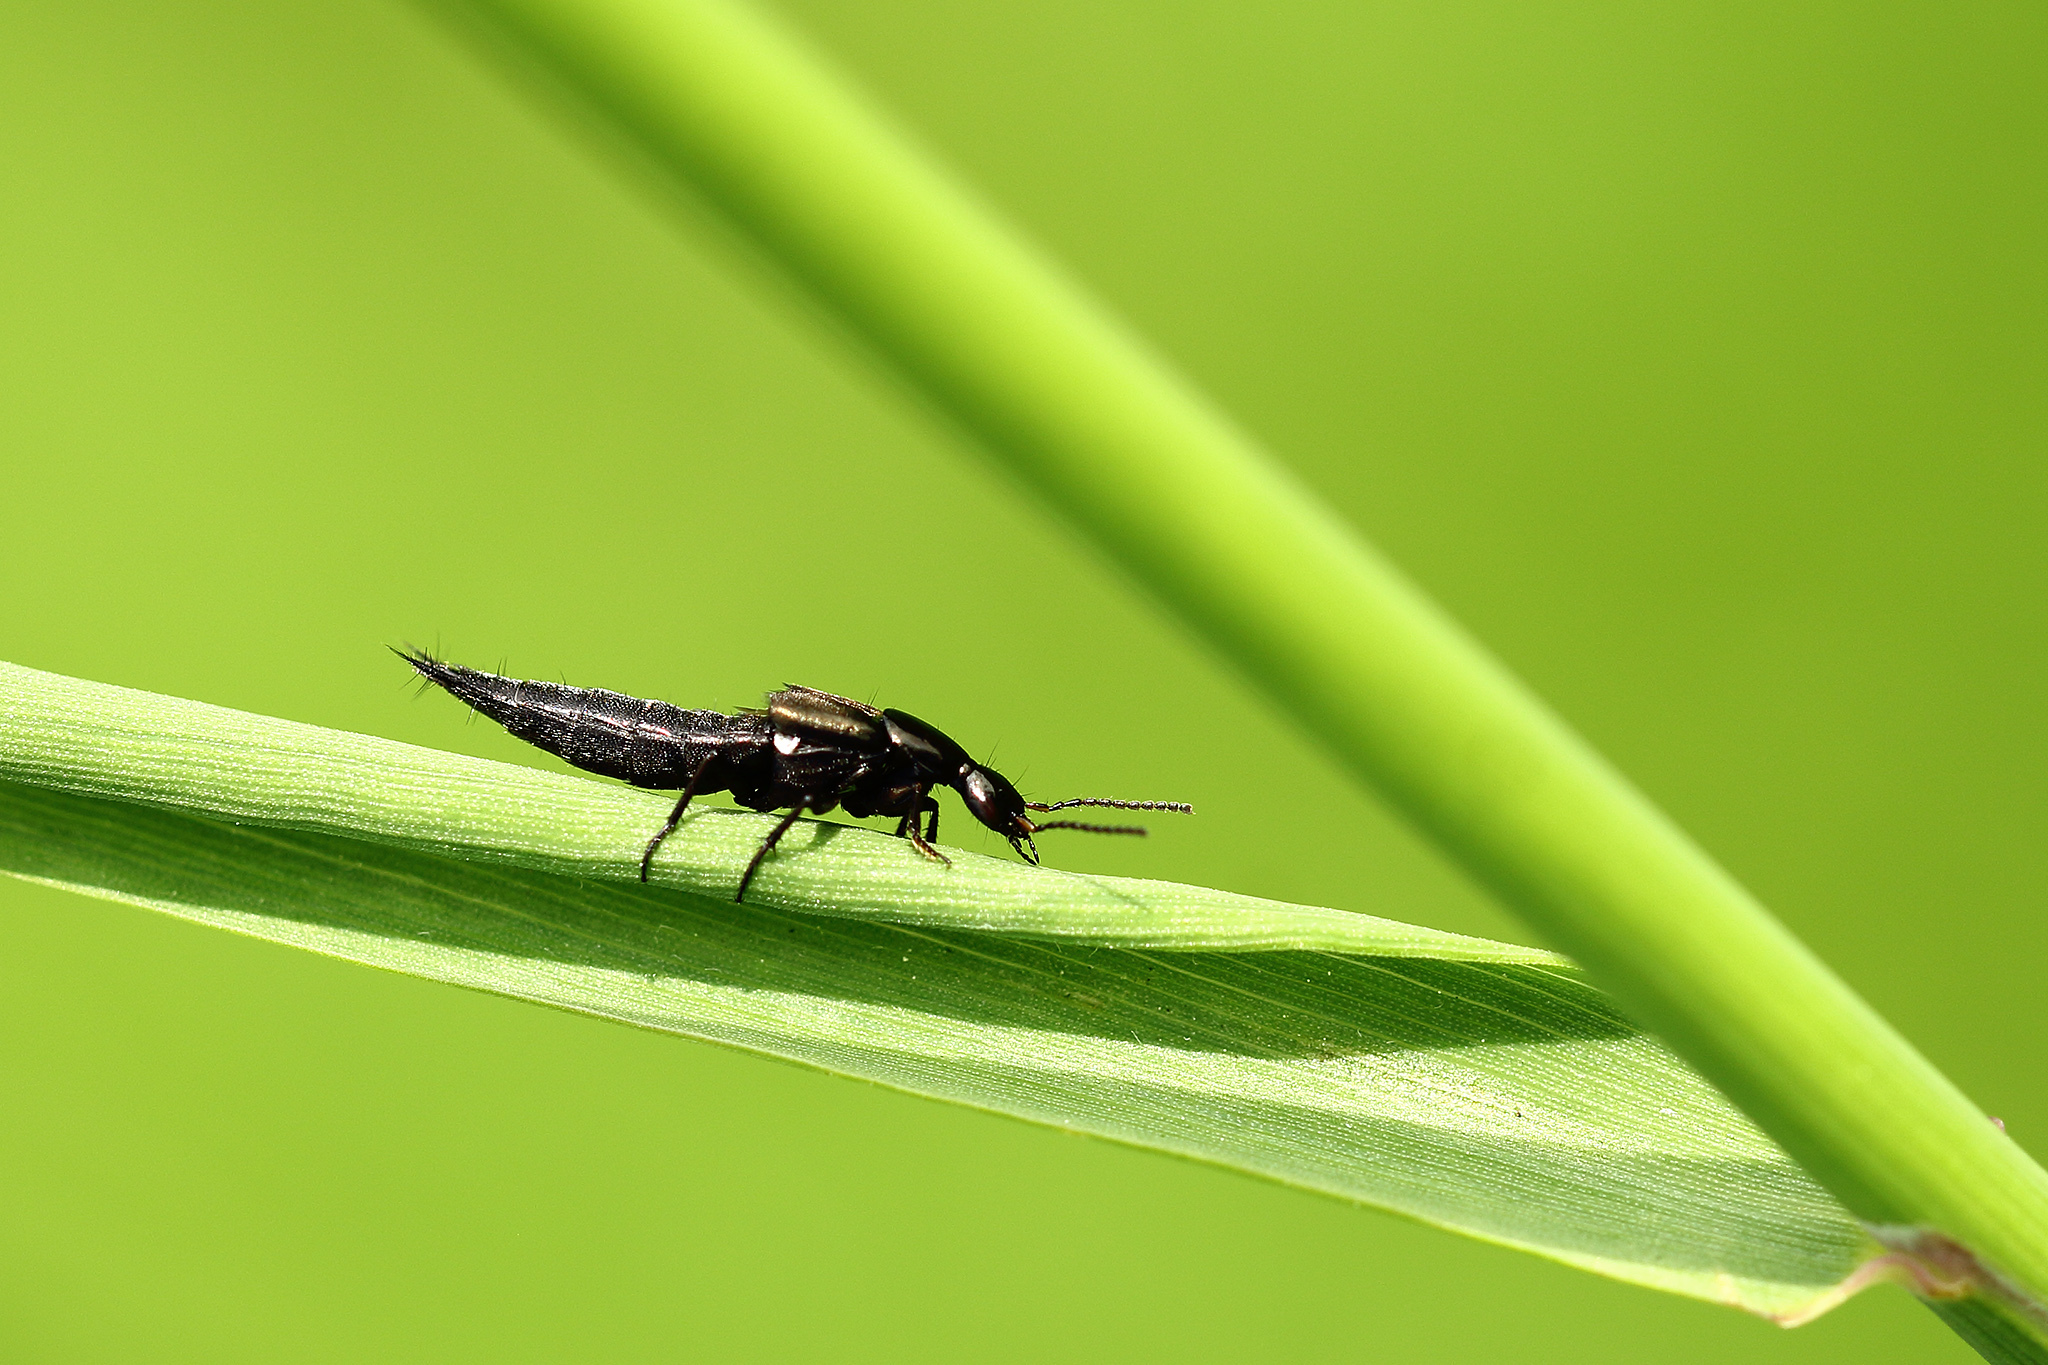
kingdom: Animalia
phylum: Arthropoda
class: Insecta
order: Coleoptera
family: Staphylinidae
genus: Philonthus
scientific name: Philonthus cognatus
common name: Staph beetle
